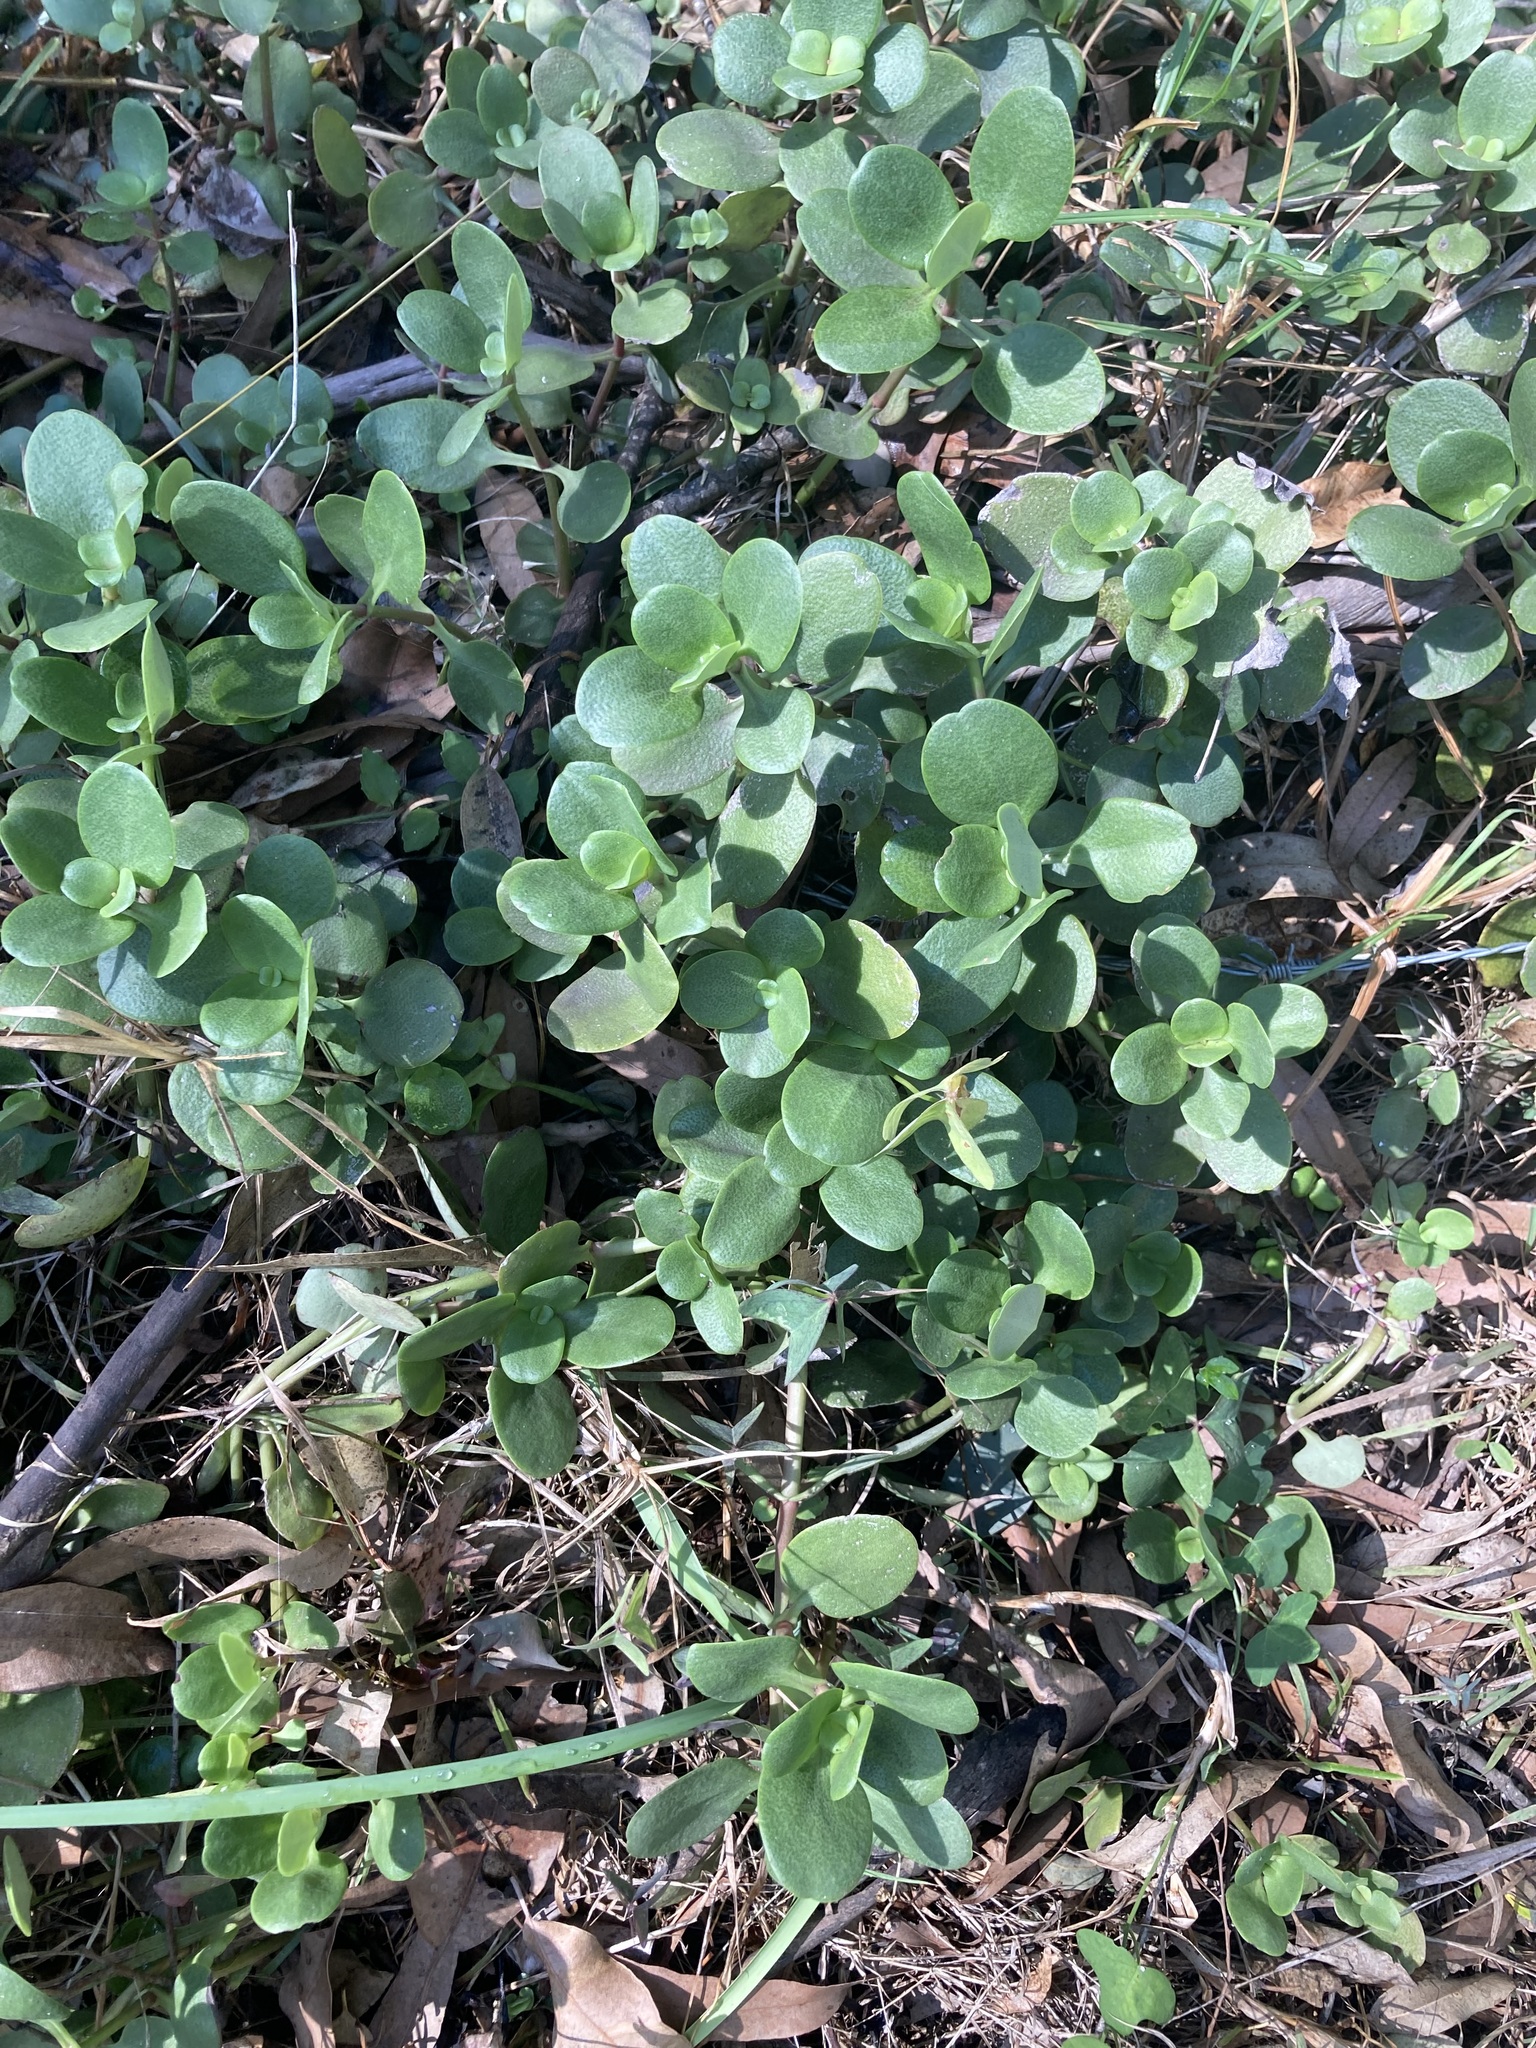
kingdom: Plantae
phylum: Tracheophyta
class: Magnoliopsida
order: Saxifragales
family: Crassulaceae
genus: Crassula
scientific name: Crassula multicava
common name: Cape province pygmyweed
